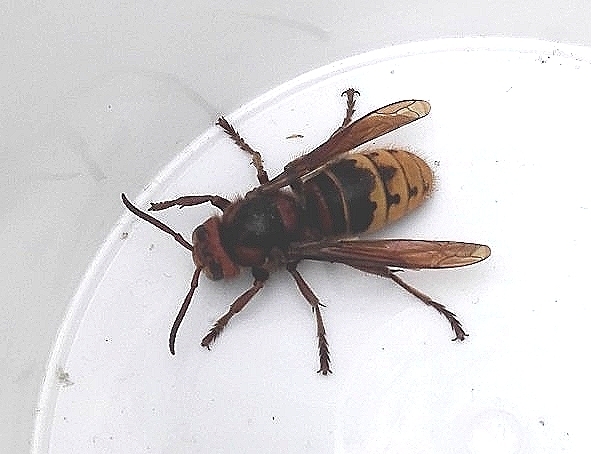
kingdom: Animalia
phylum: Arthropoda
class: Insecta
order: Hymenoptera
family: Vespidae
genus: Vespa
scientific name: Vespa crabro
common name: Hornet
